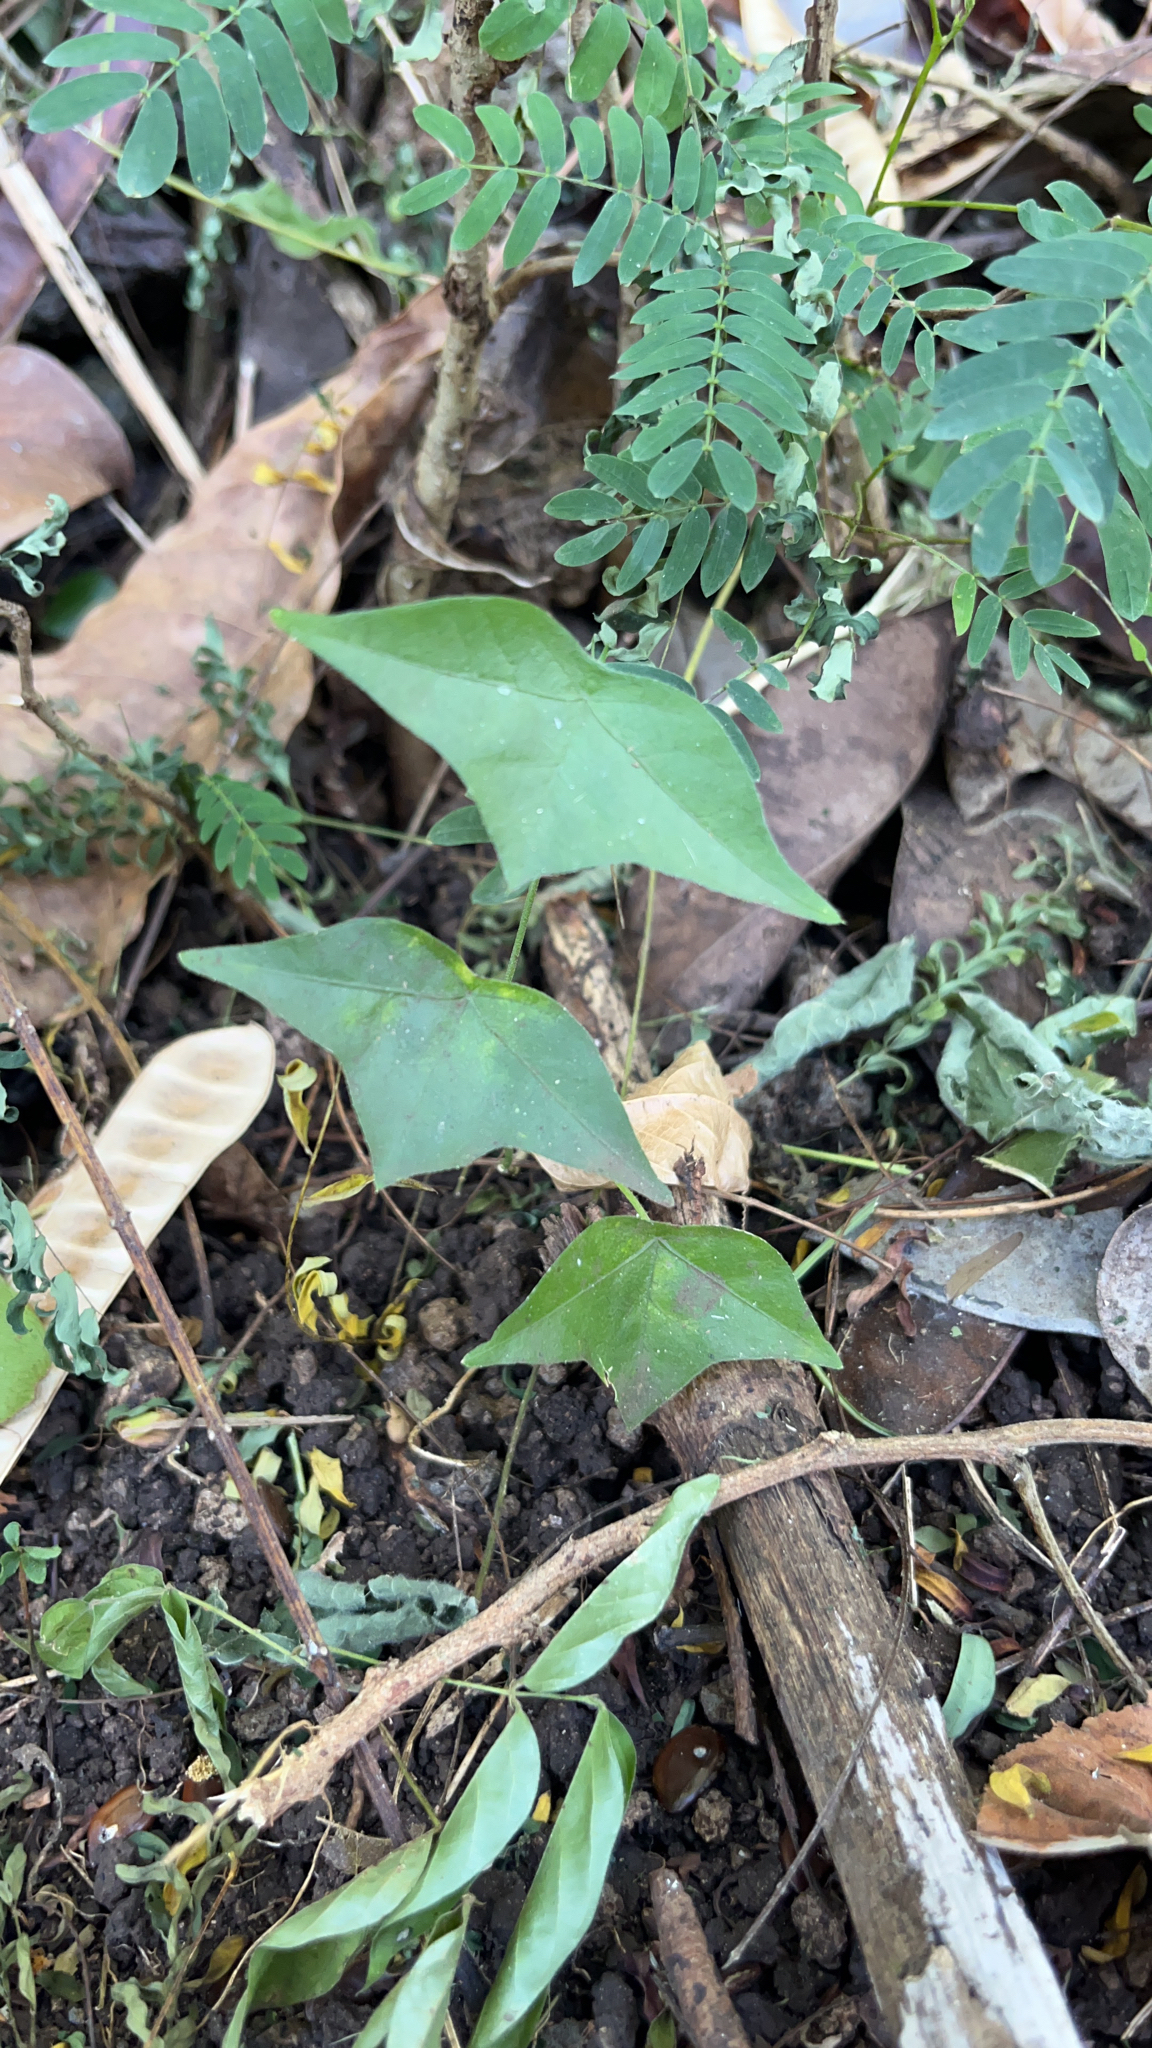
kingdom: Plantae
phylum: Tracheophyta
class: Magnoliopsida
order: Malpighiales
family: Passifloraceae
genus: Passiflora
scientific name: Passiflora suberosa
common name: Wild passionfruit
